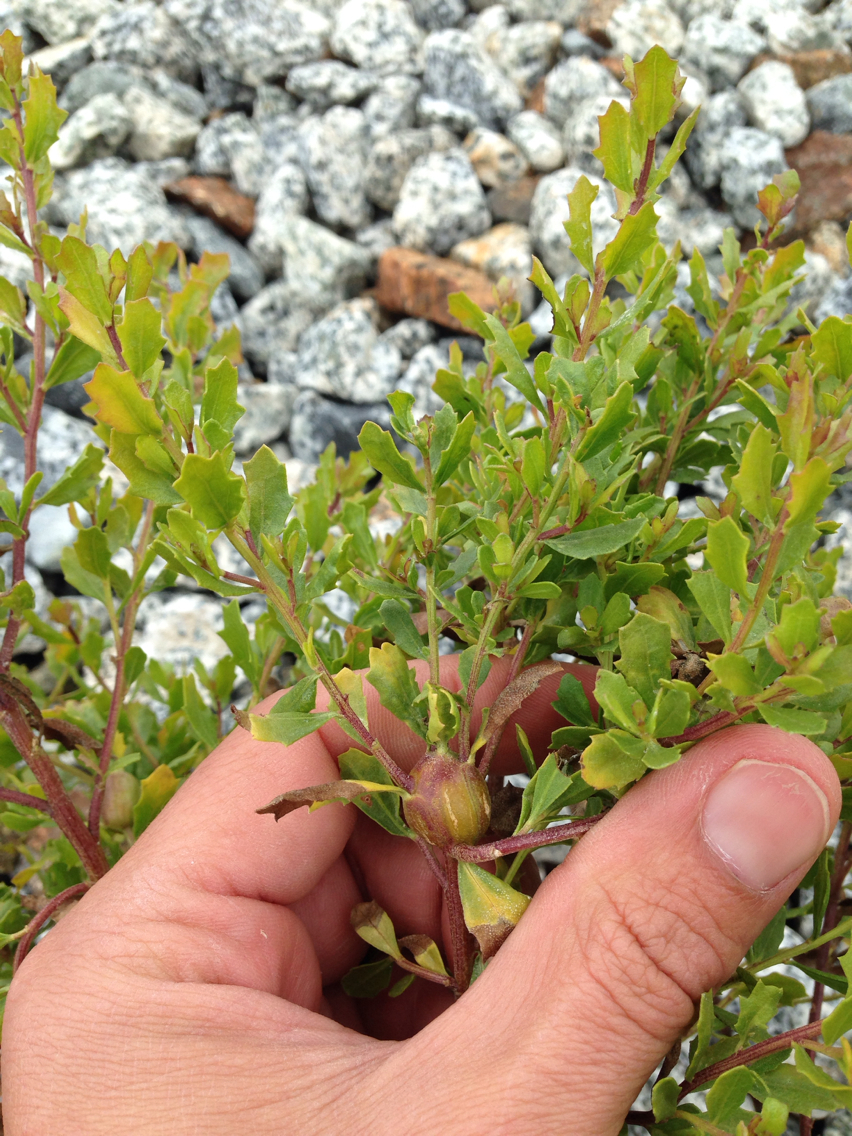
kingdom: Plantae
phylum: Tracheophyta
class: Magnoliopsida
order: Asterales
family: Asteraceae
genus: Baccharis
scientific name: Baccharis pilularis
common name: Coyotebrush
